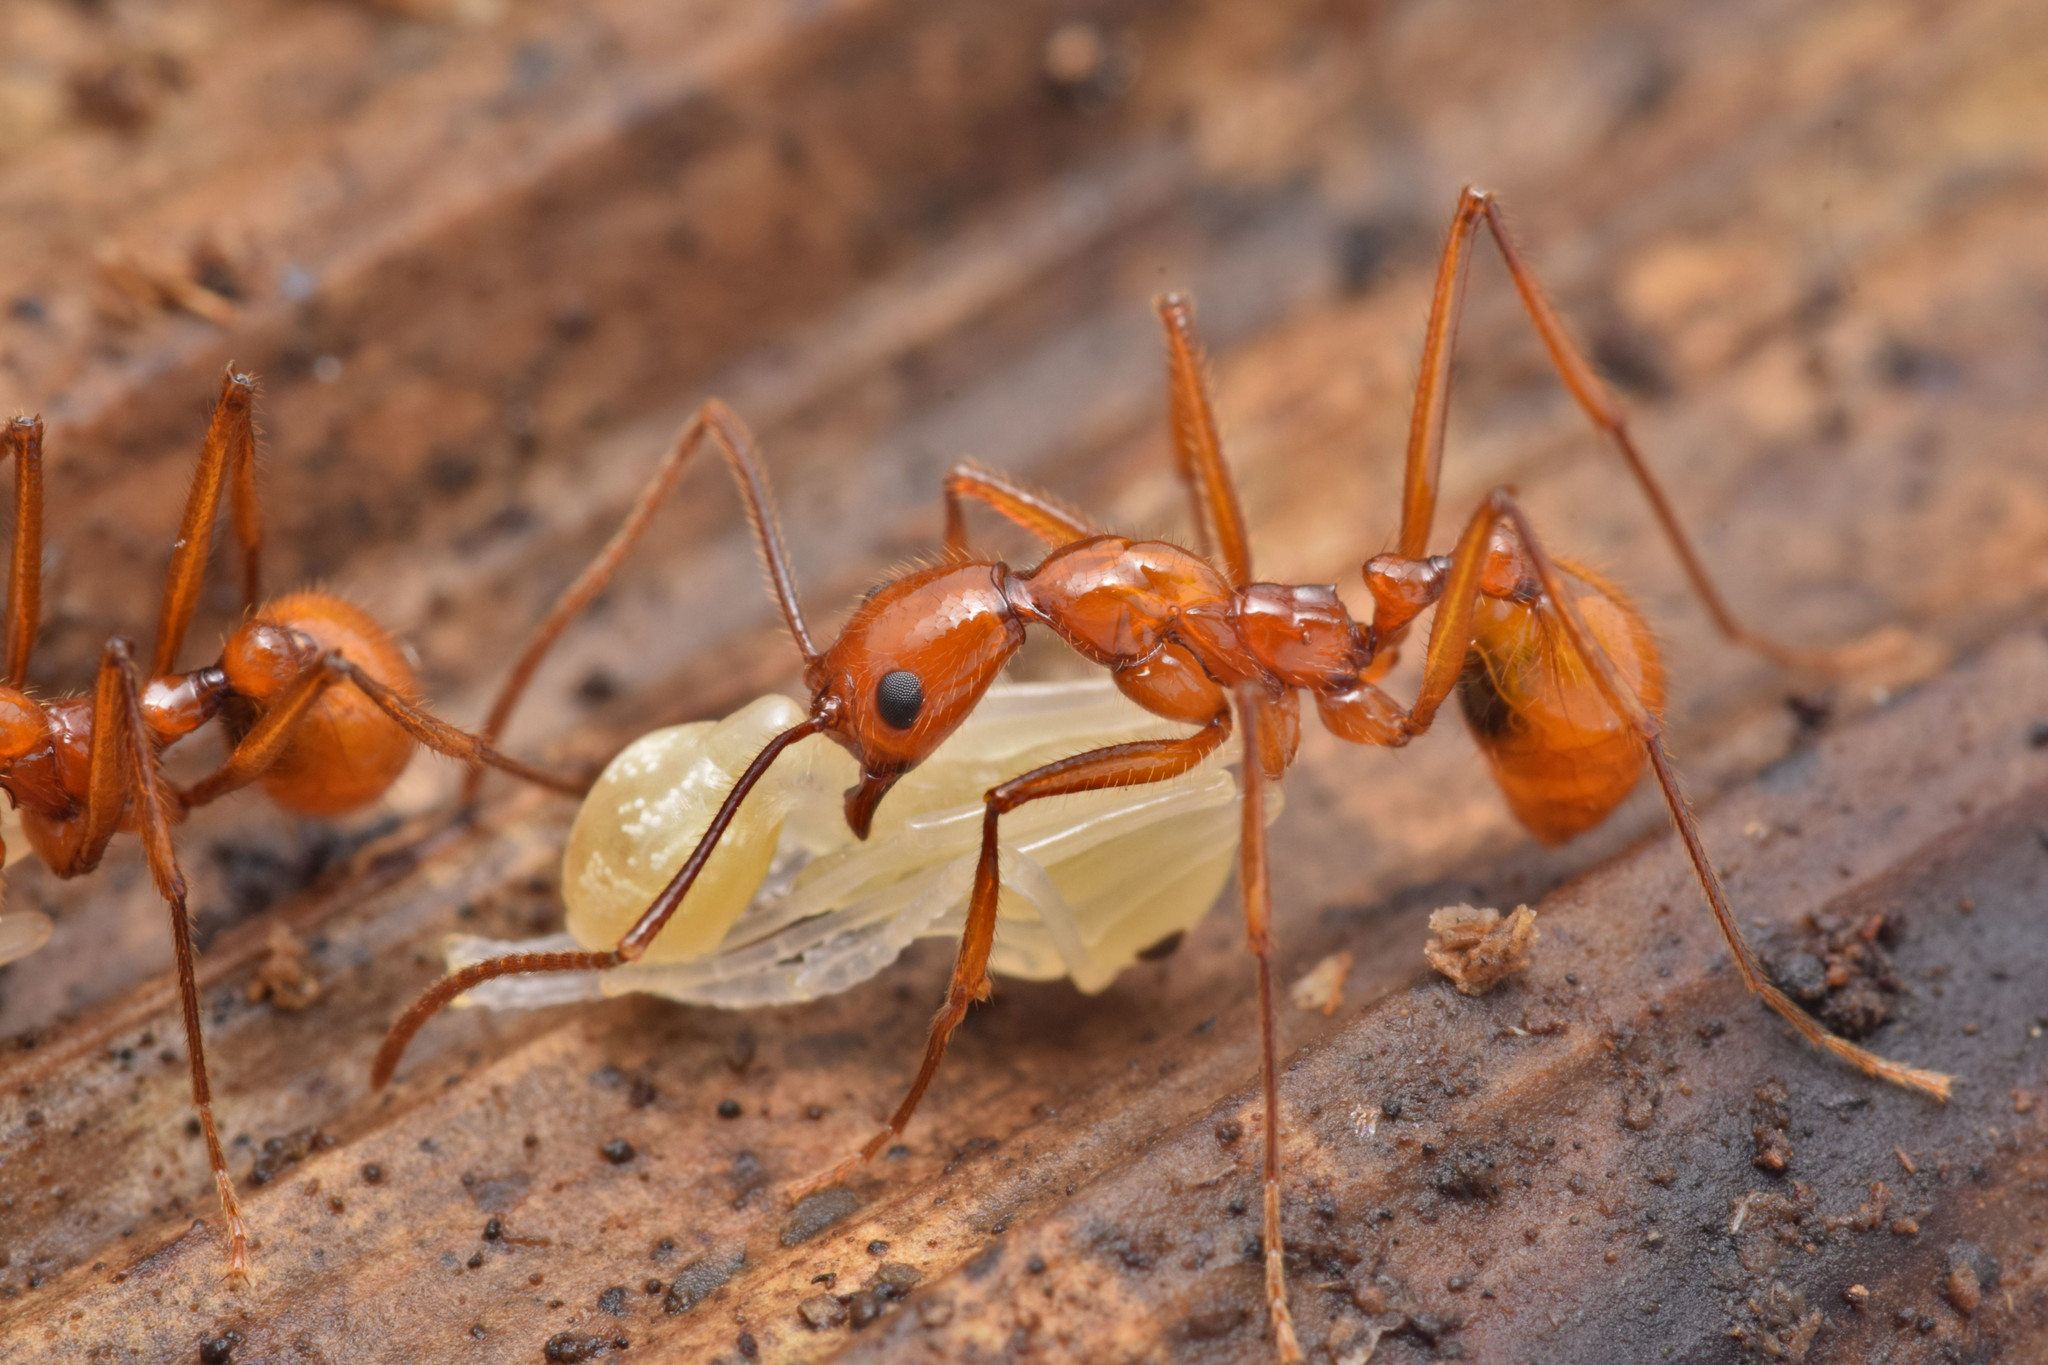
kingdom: Animalia
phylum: Arthropoda
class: Insecta
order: Hymenoptera
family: Formicidae
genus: Megalomyrmex
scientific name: Megalomyrmex
